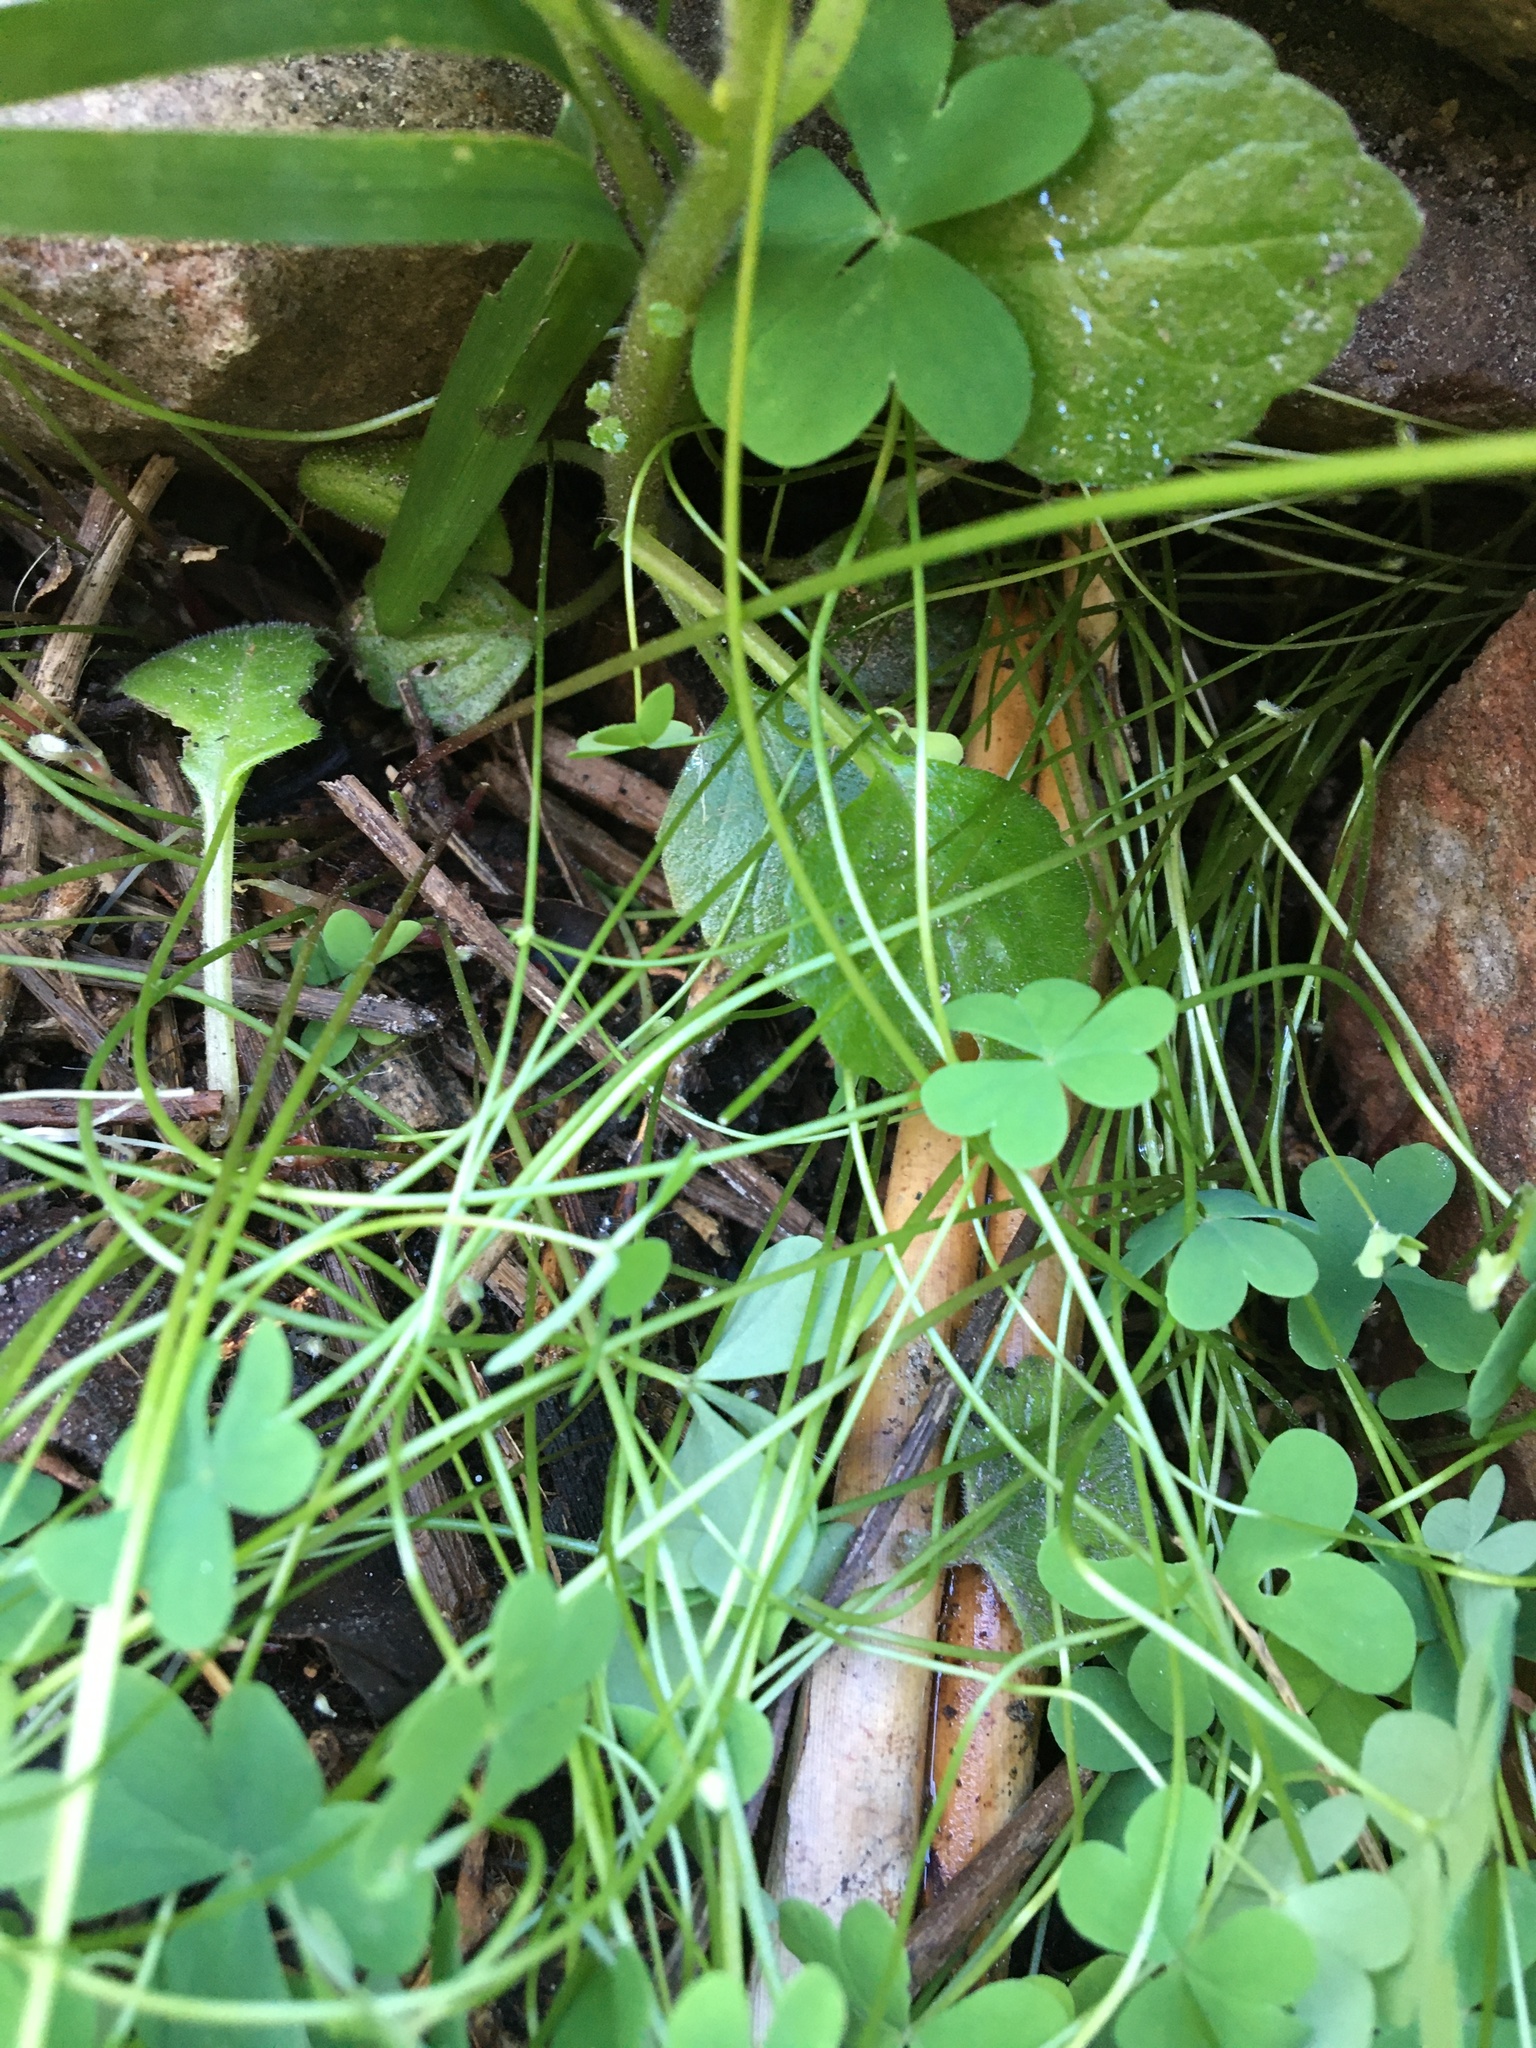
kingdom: Plantae
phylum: Tracheophyta
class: Magnoliopsida
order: Oxalidales
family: Oxalidaceae
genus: Oxalis
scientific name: Oxalis caprina
